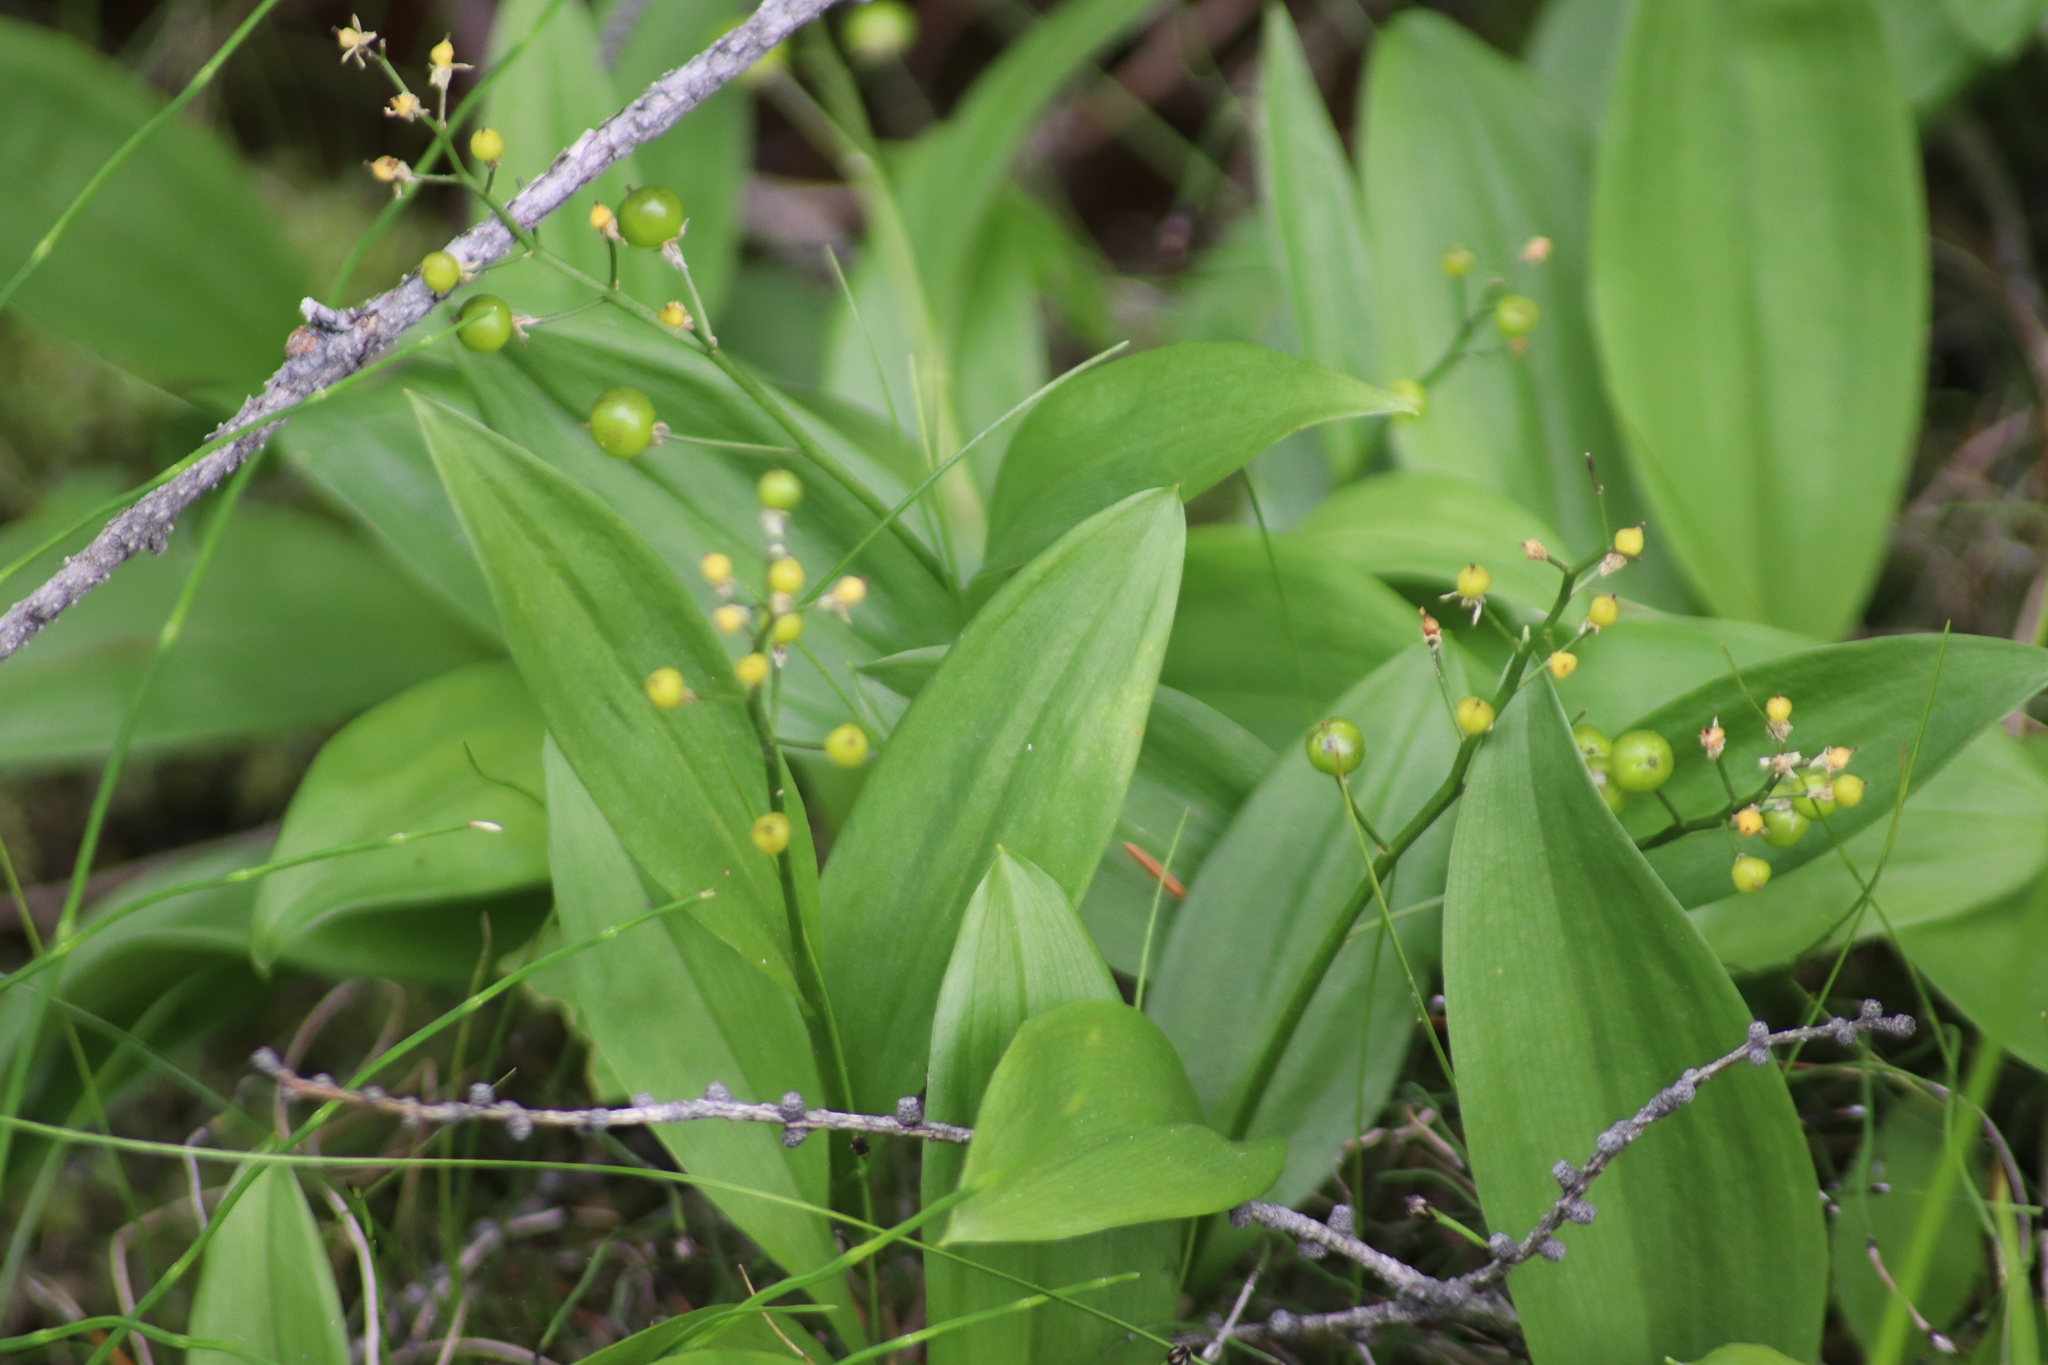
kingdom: Plantae
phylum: Tracheophyta
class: Liliopsida
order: Asparagales
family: Asparagaceae
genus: Maianthemum
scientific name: Maianthemum trifolium
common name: Swamp false solomon's seal
